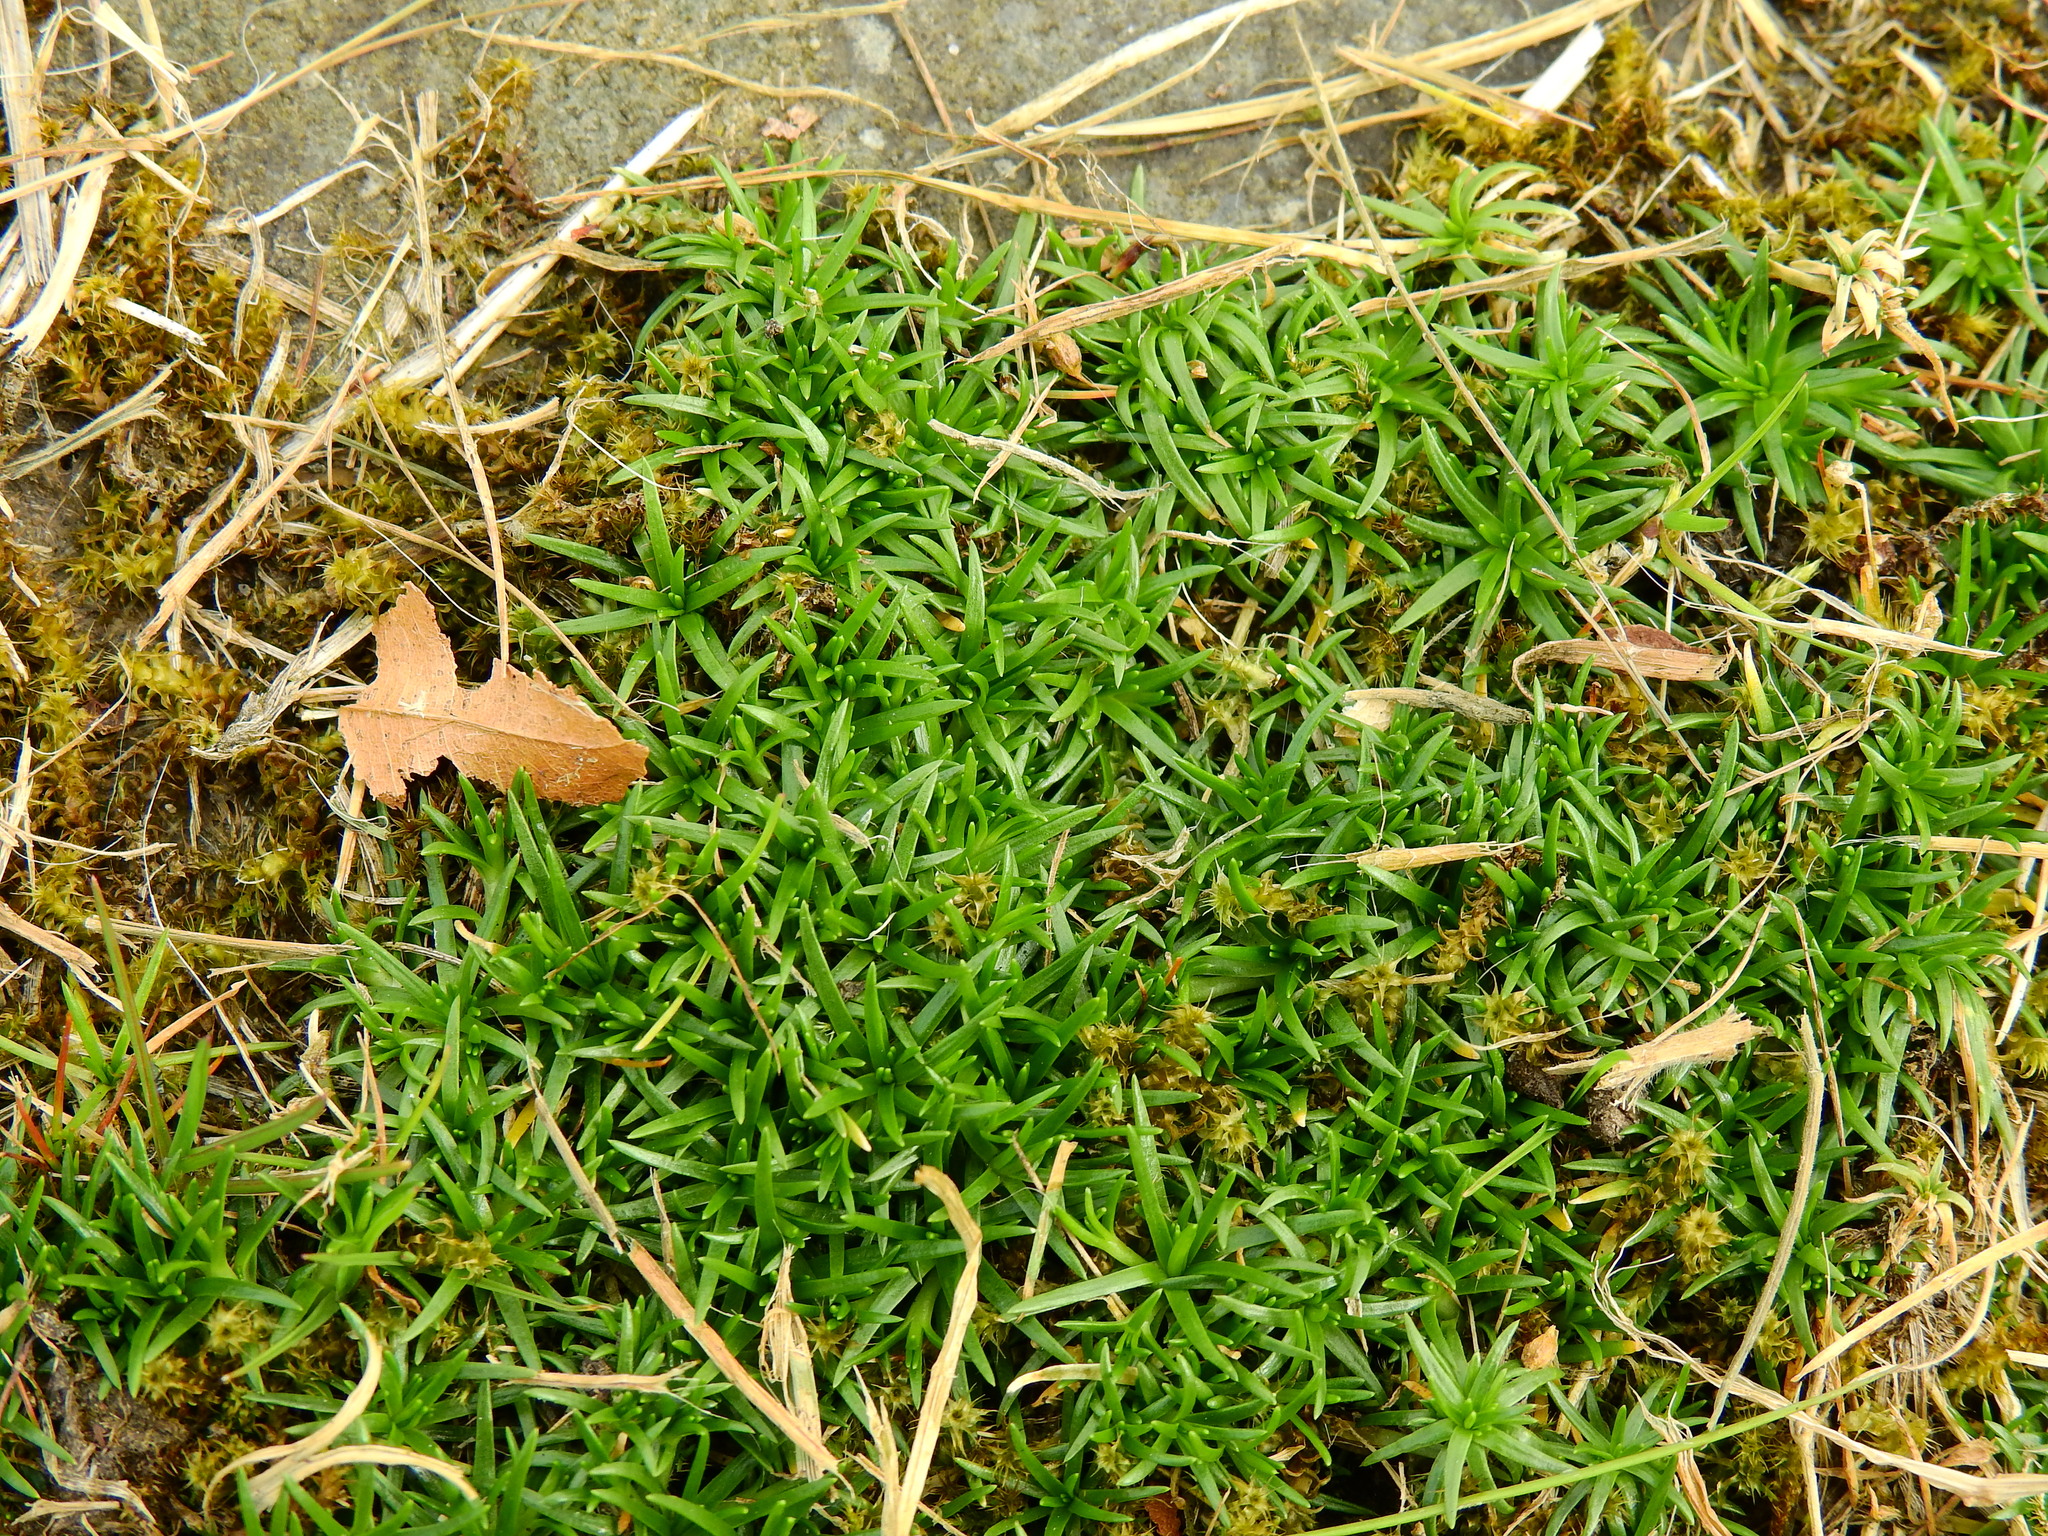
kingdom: Plantae
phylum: Tracheophyta
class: Magnoliopsida
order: Caryophyllales
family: Caryophyllaceae
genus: Sagina
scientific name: Sagina procumbens
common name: Procumbent pearlwort
